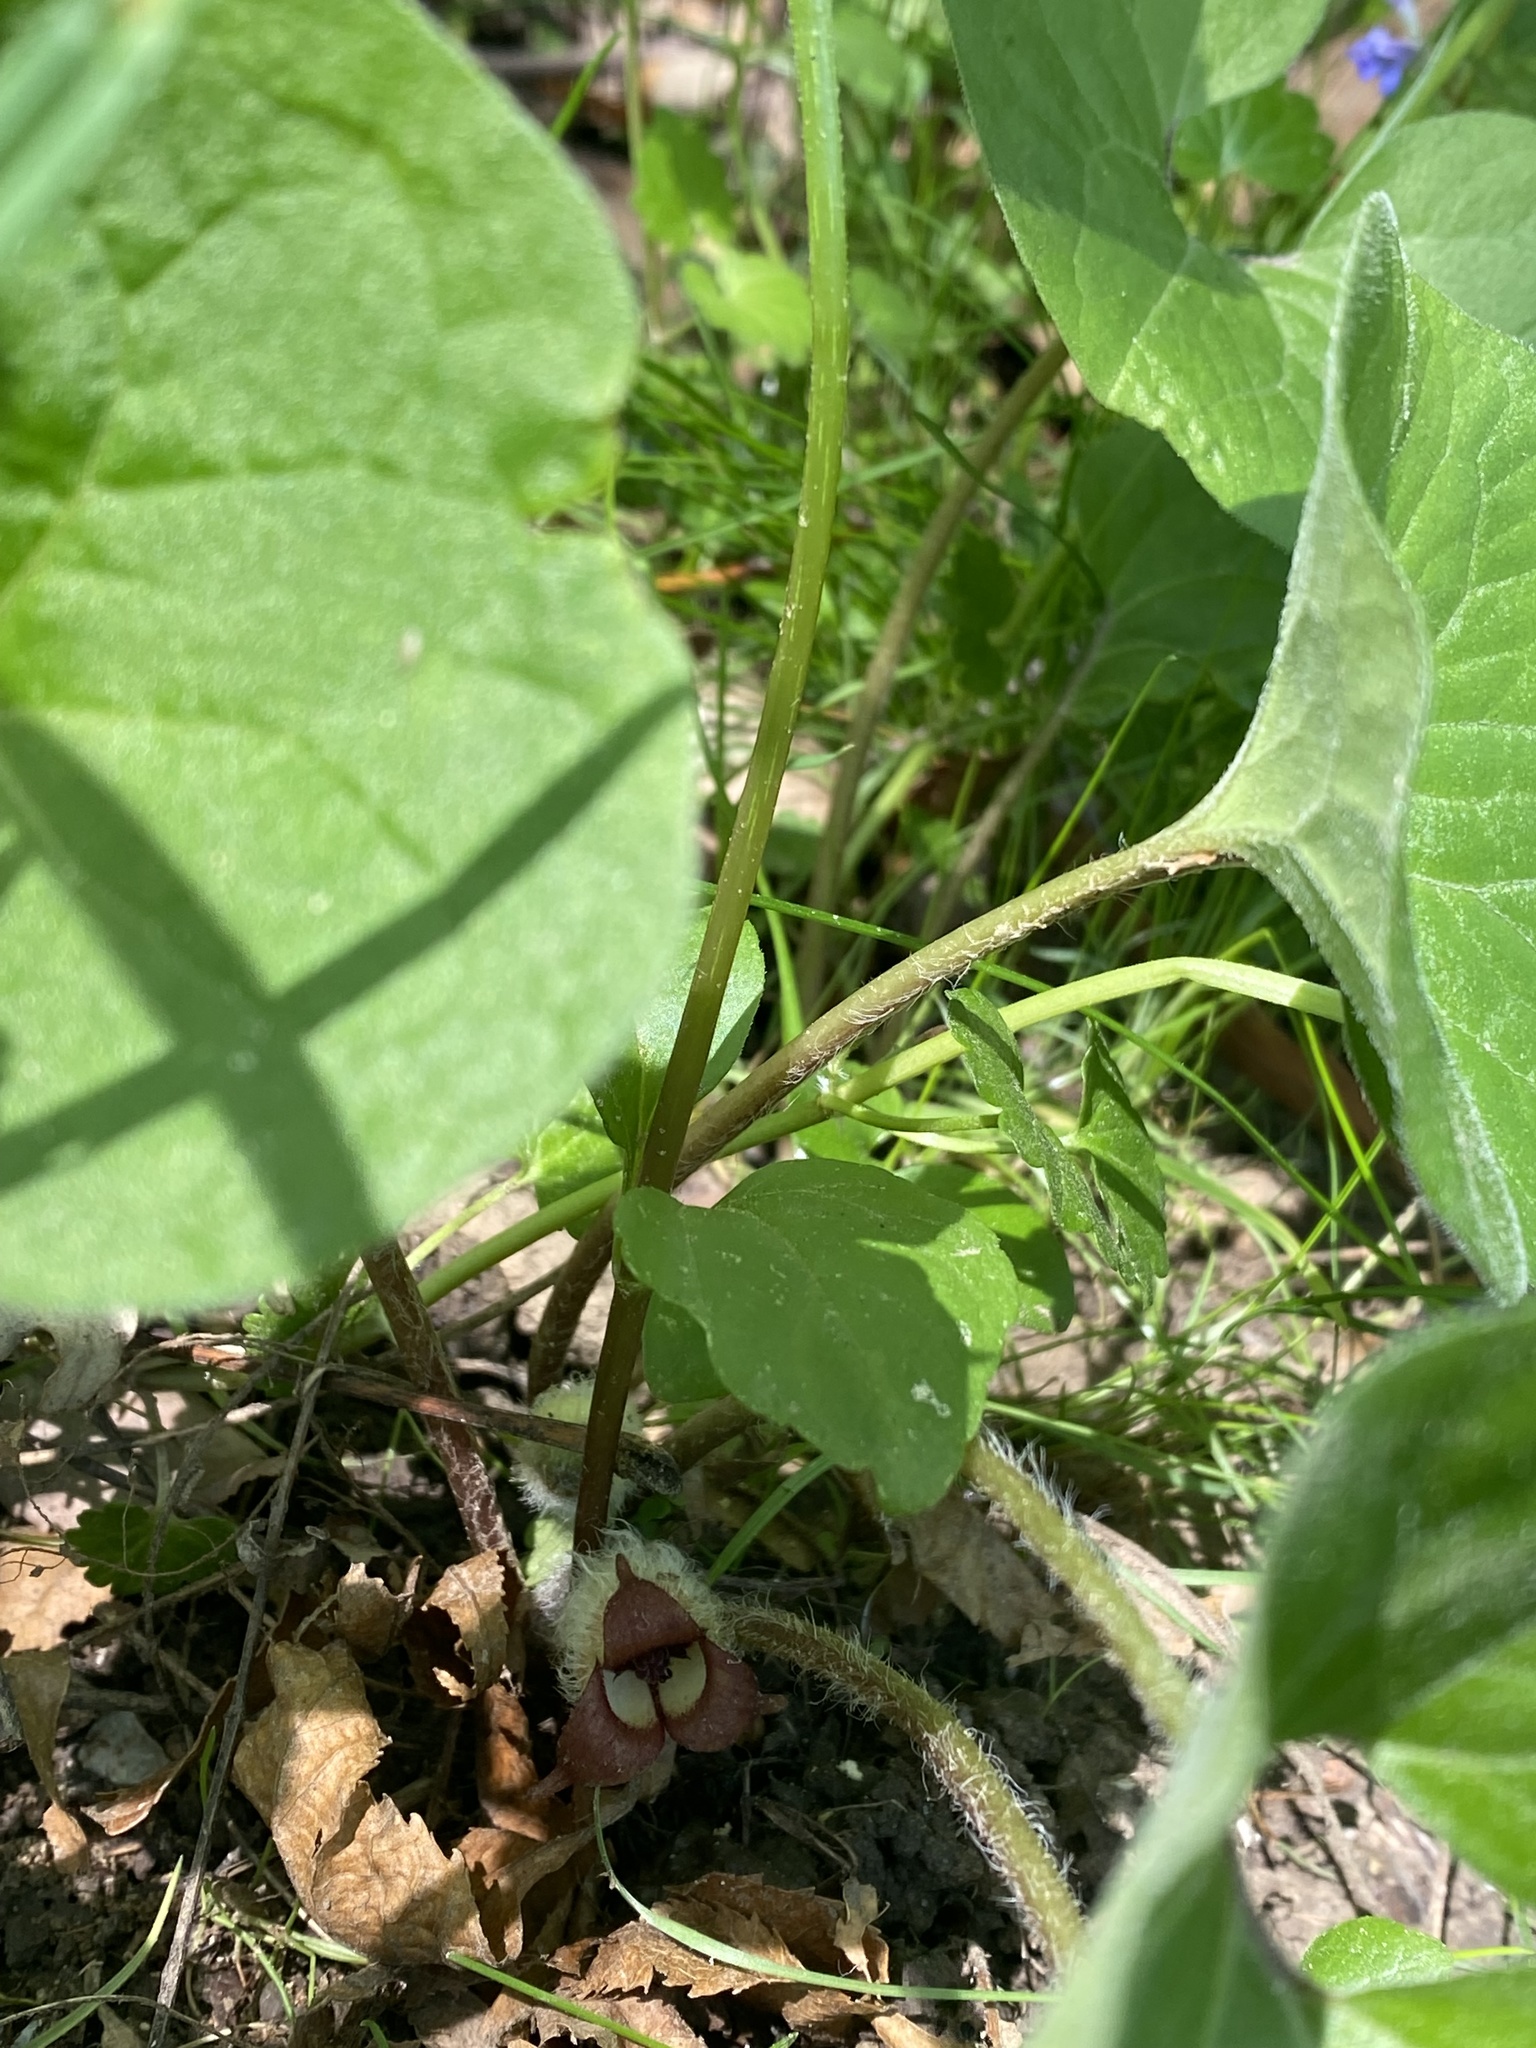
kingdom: Plantae
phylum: Tracheophyta
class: Magnoliopsida
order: Piperales
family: Aristolochiaceae
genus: Asarum
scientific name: Asarum canadense
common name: Wild ginger
